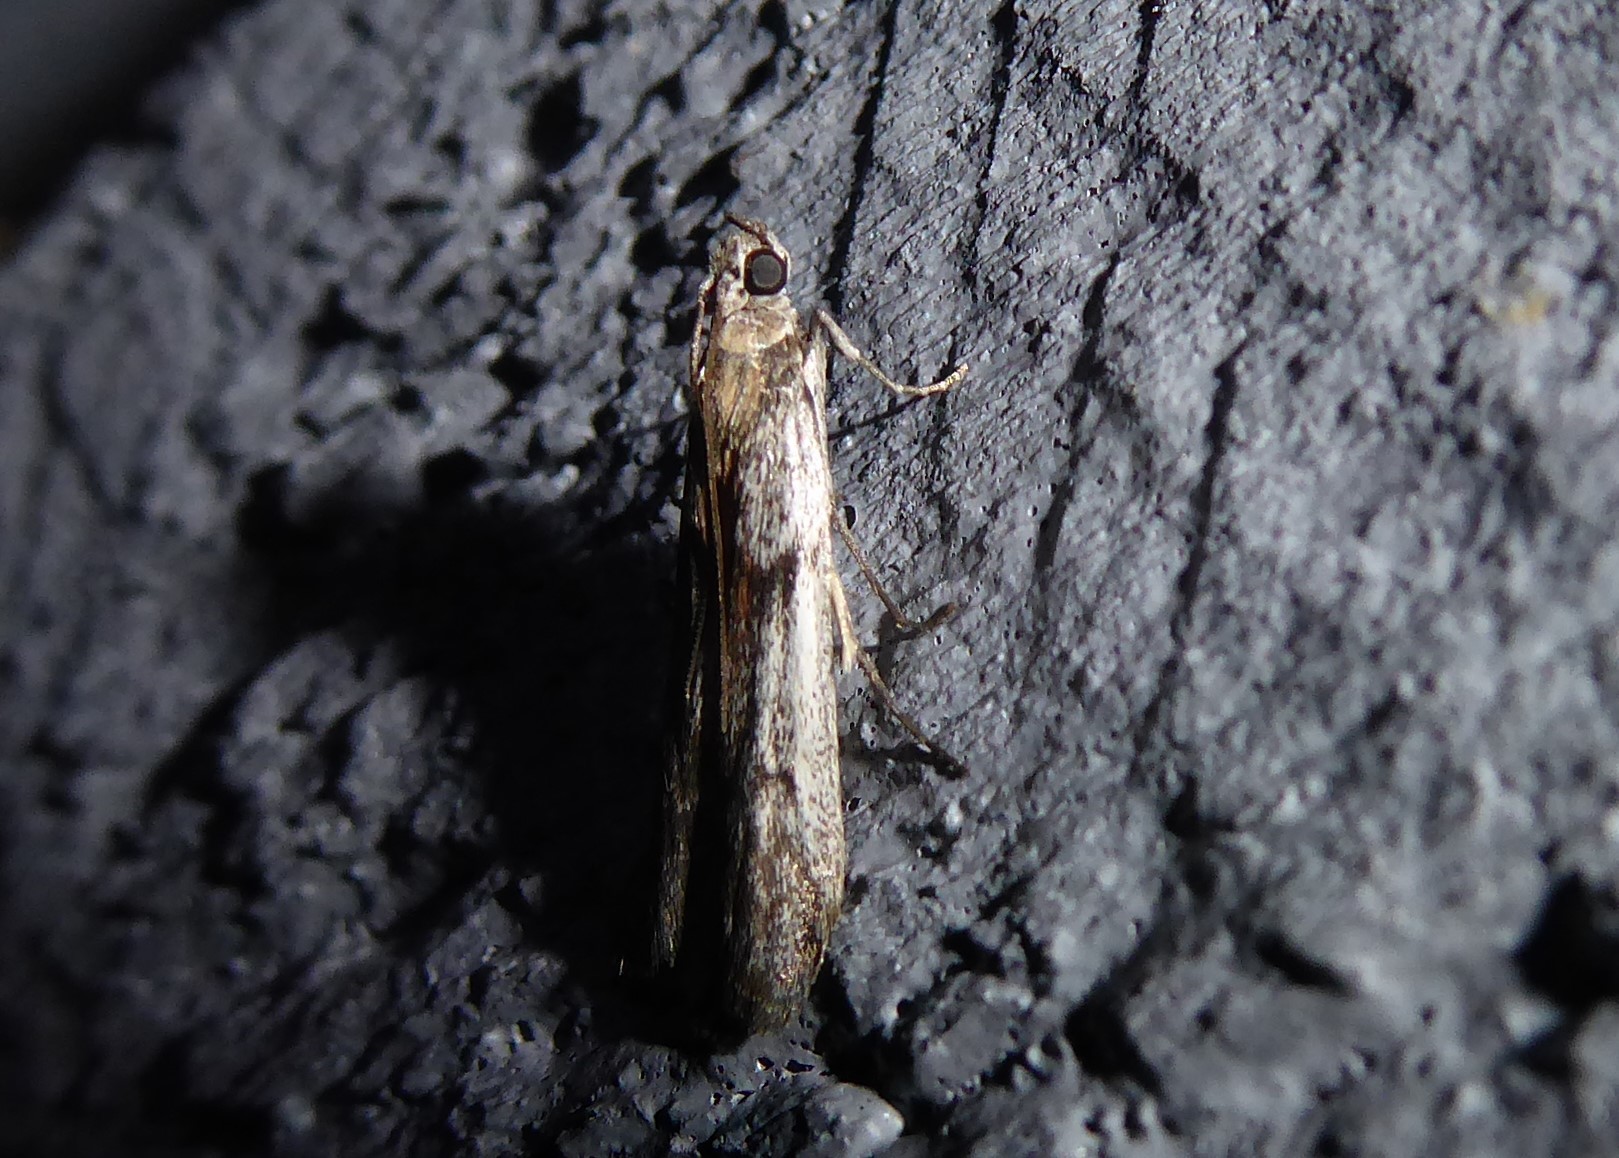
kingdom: Animalia
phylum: Arthropoda
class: Insecta
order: Lepidoptera
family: Pyralidae
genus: Patagoniodes
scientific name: Patagoniodes farinaria
